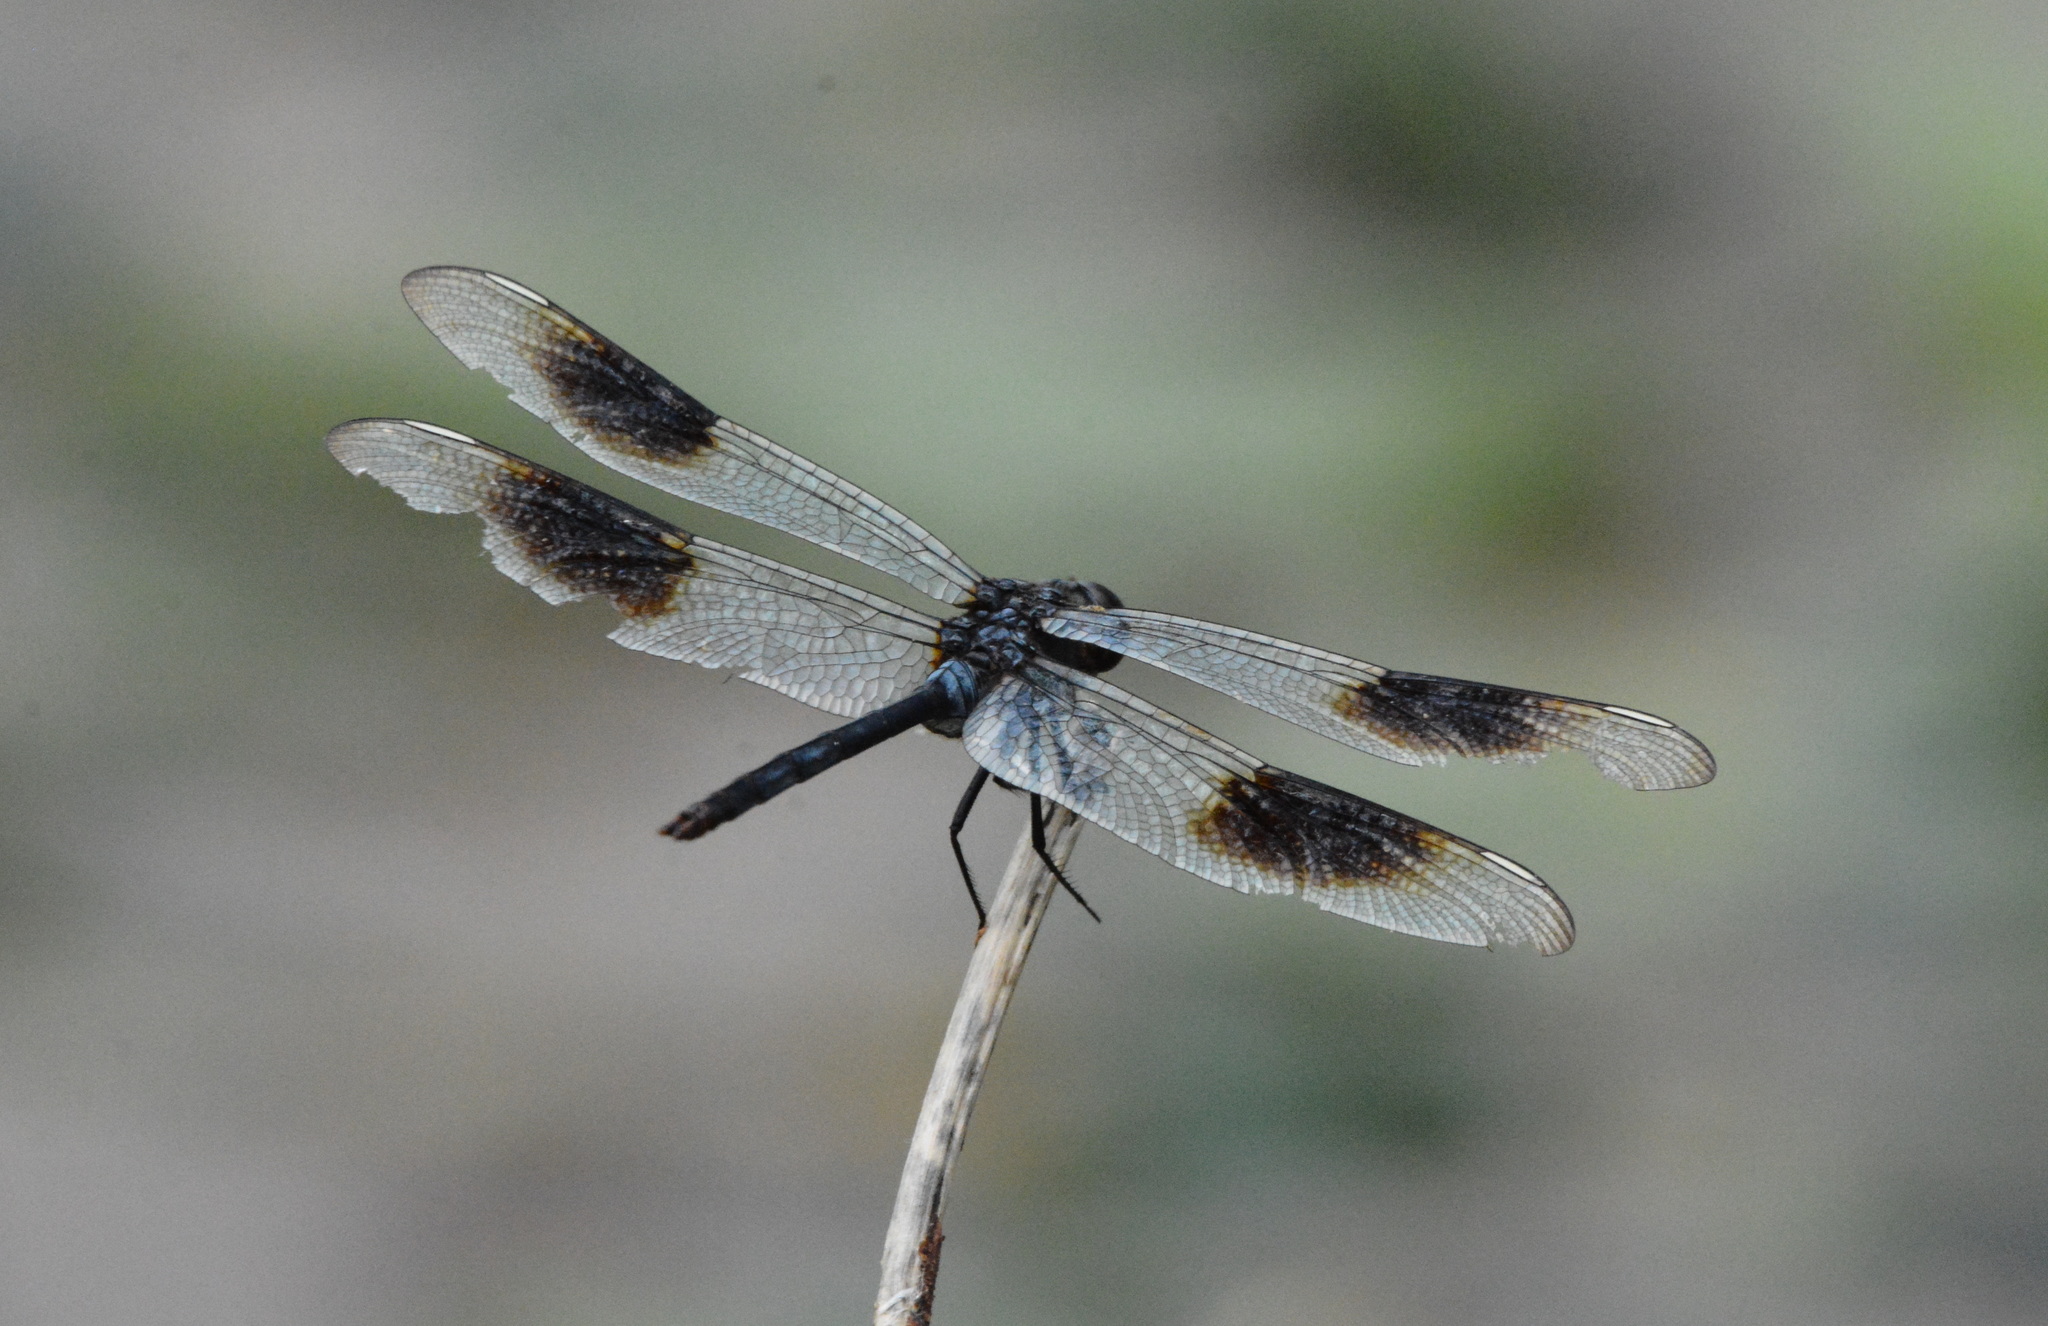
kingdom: Animalia
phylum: Arthropoda
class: Insecta
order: Odonata
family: Libellulidae
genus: Brachymesia
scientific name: Brachymesia gravida
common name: Four-spotted pennant
